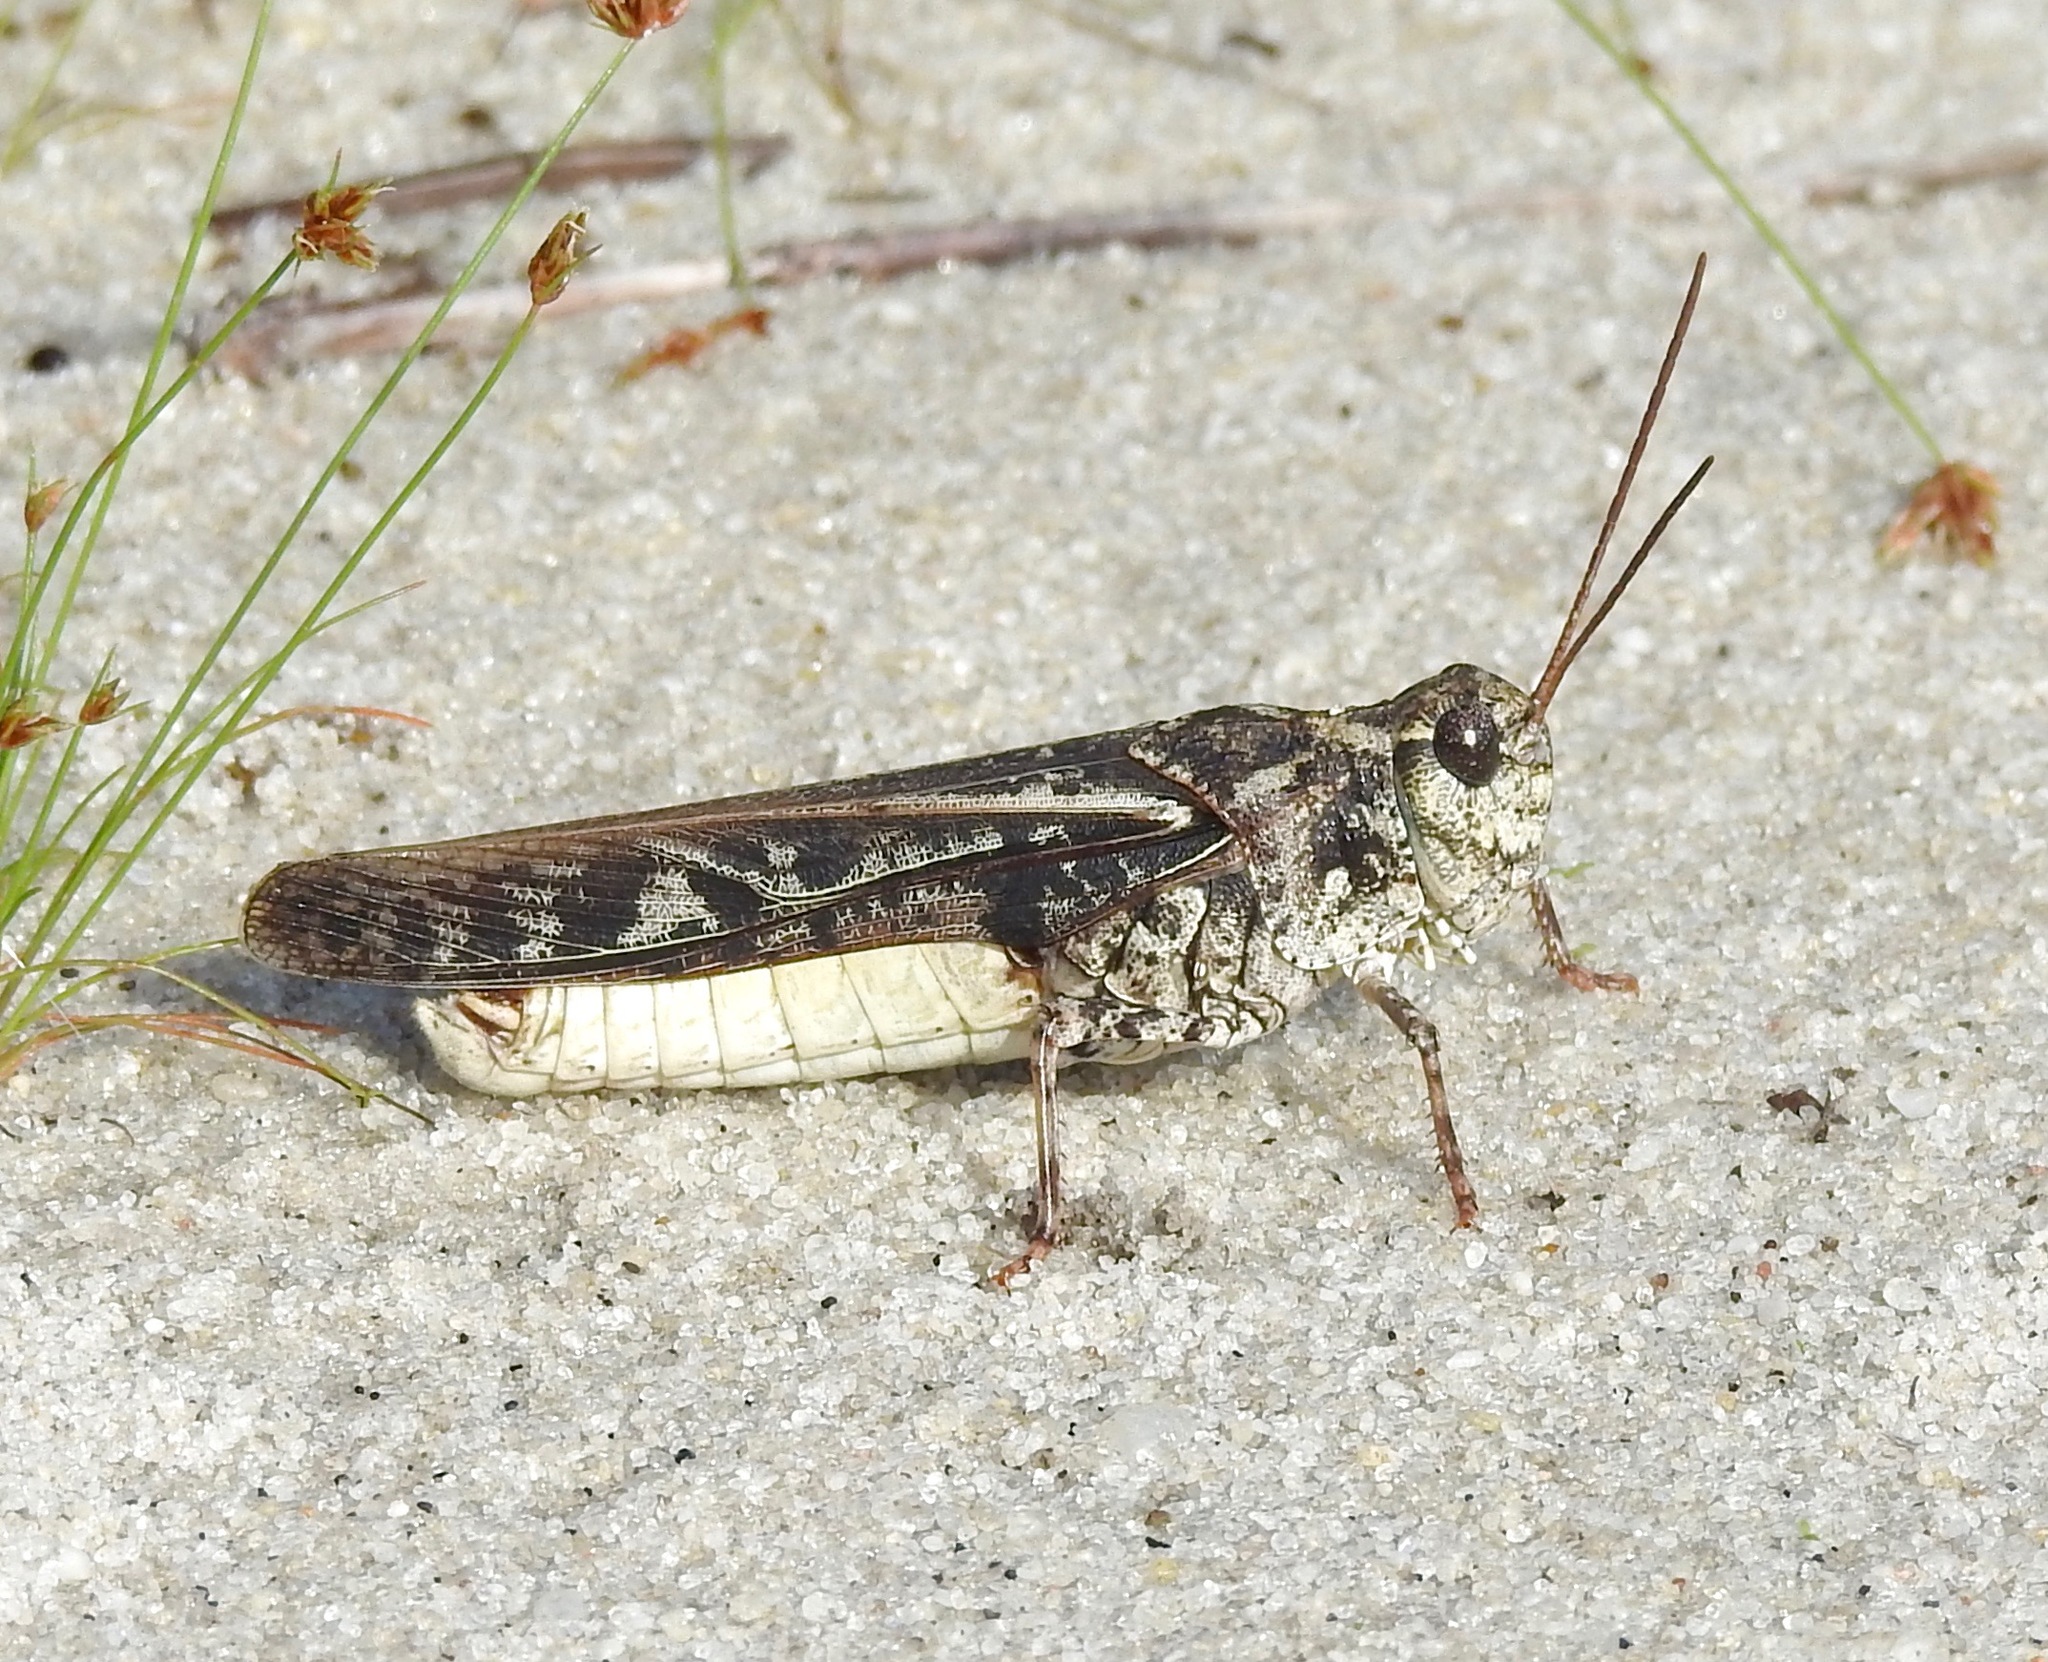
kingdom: Animalia
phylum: Arthropoda
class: Insecta
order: Orthoptera
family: Acrididae
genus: Pardalophora
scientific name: Pardalophora phoenicoptera
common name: Orange-winged grasshopper
